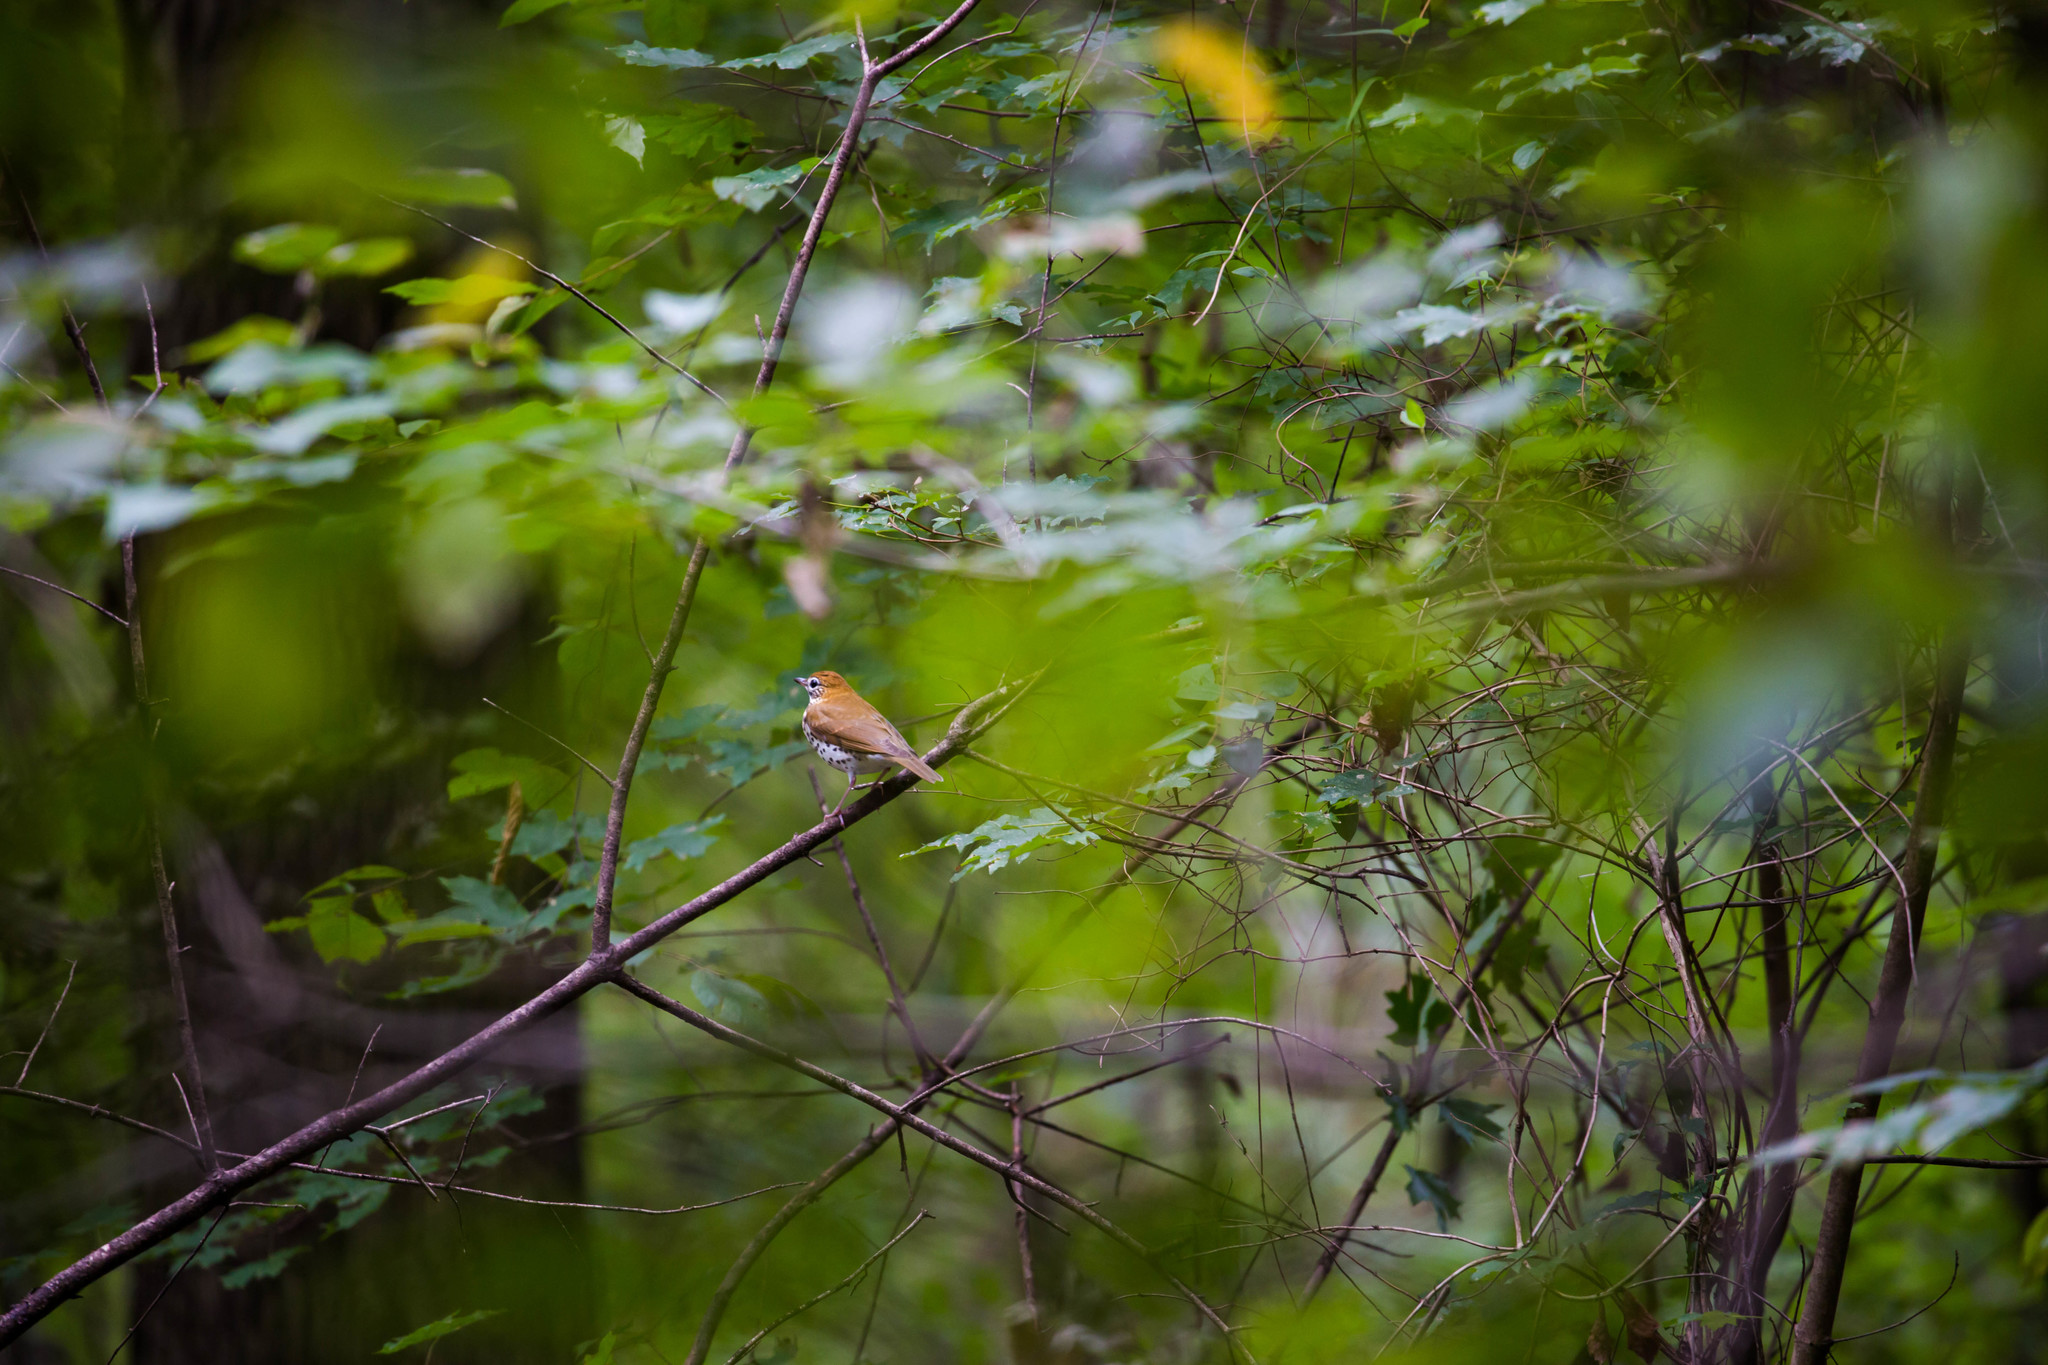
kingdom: Animalia
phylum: Chordata
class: Aves
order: Passeriformes
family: Turdidae
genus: Hylocichla
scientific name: Hylocichla mustelina
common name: Wood thrush
